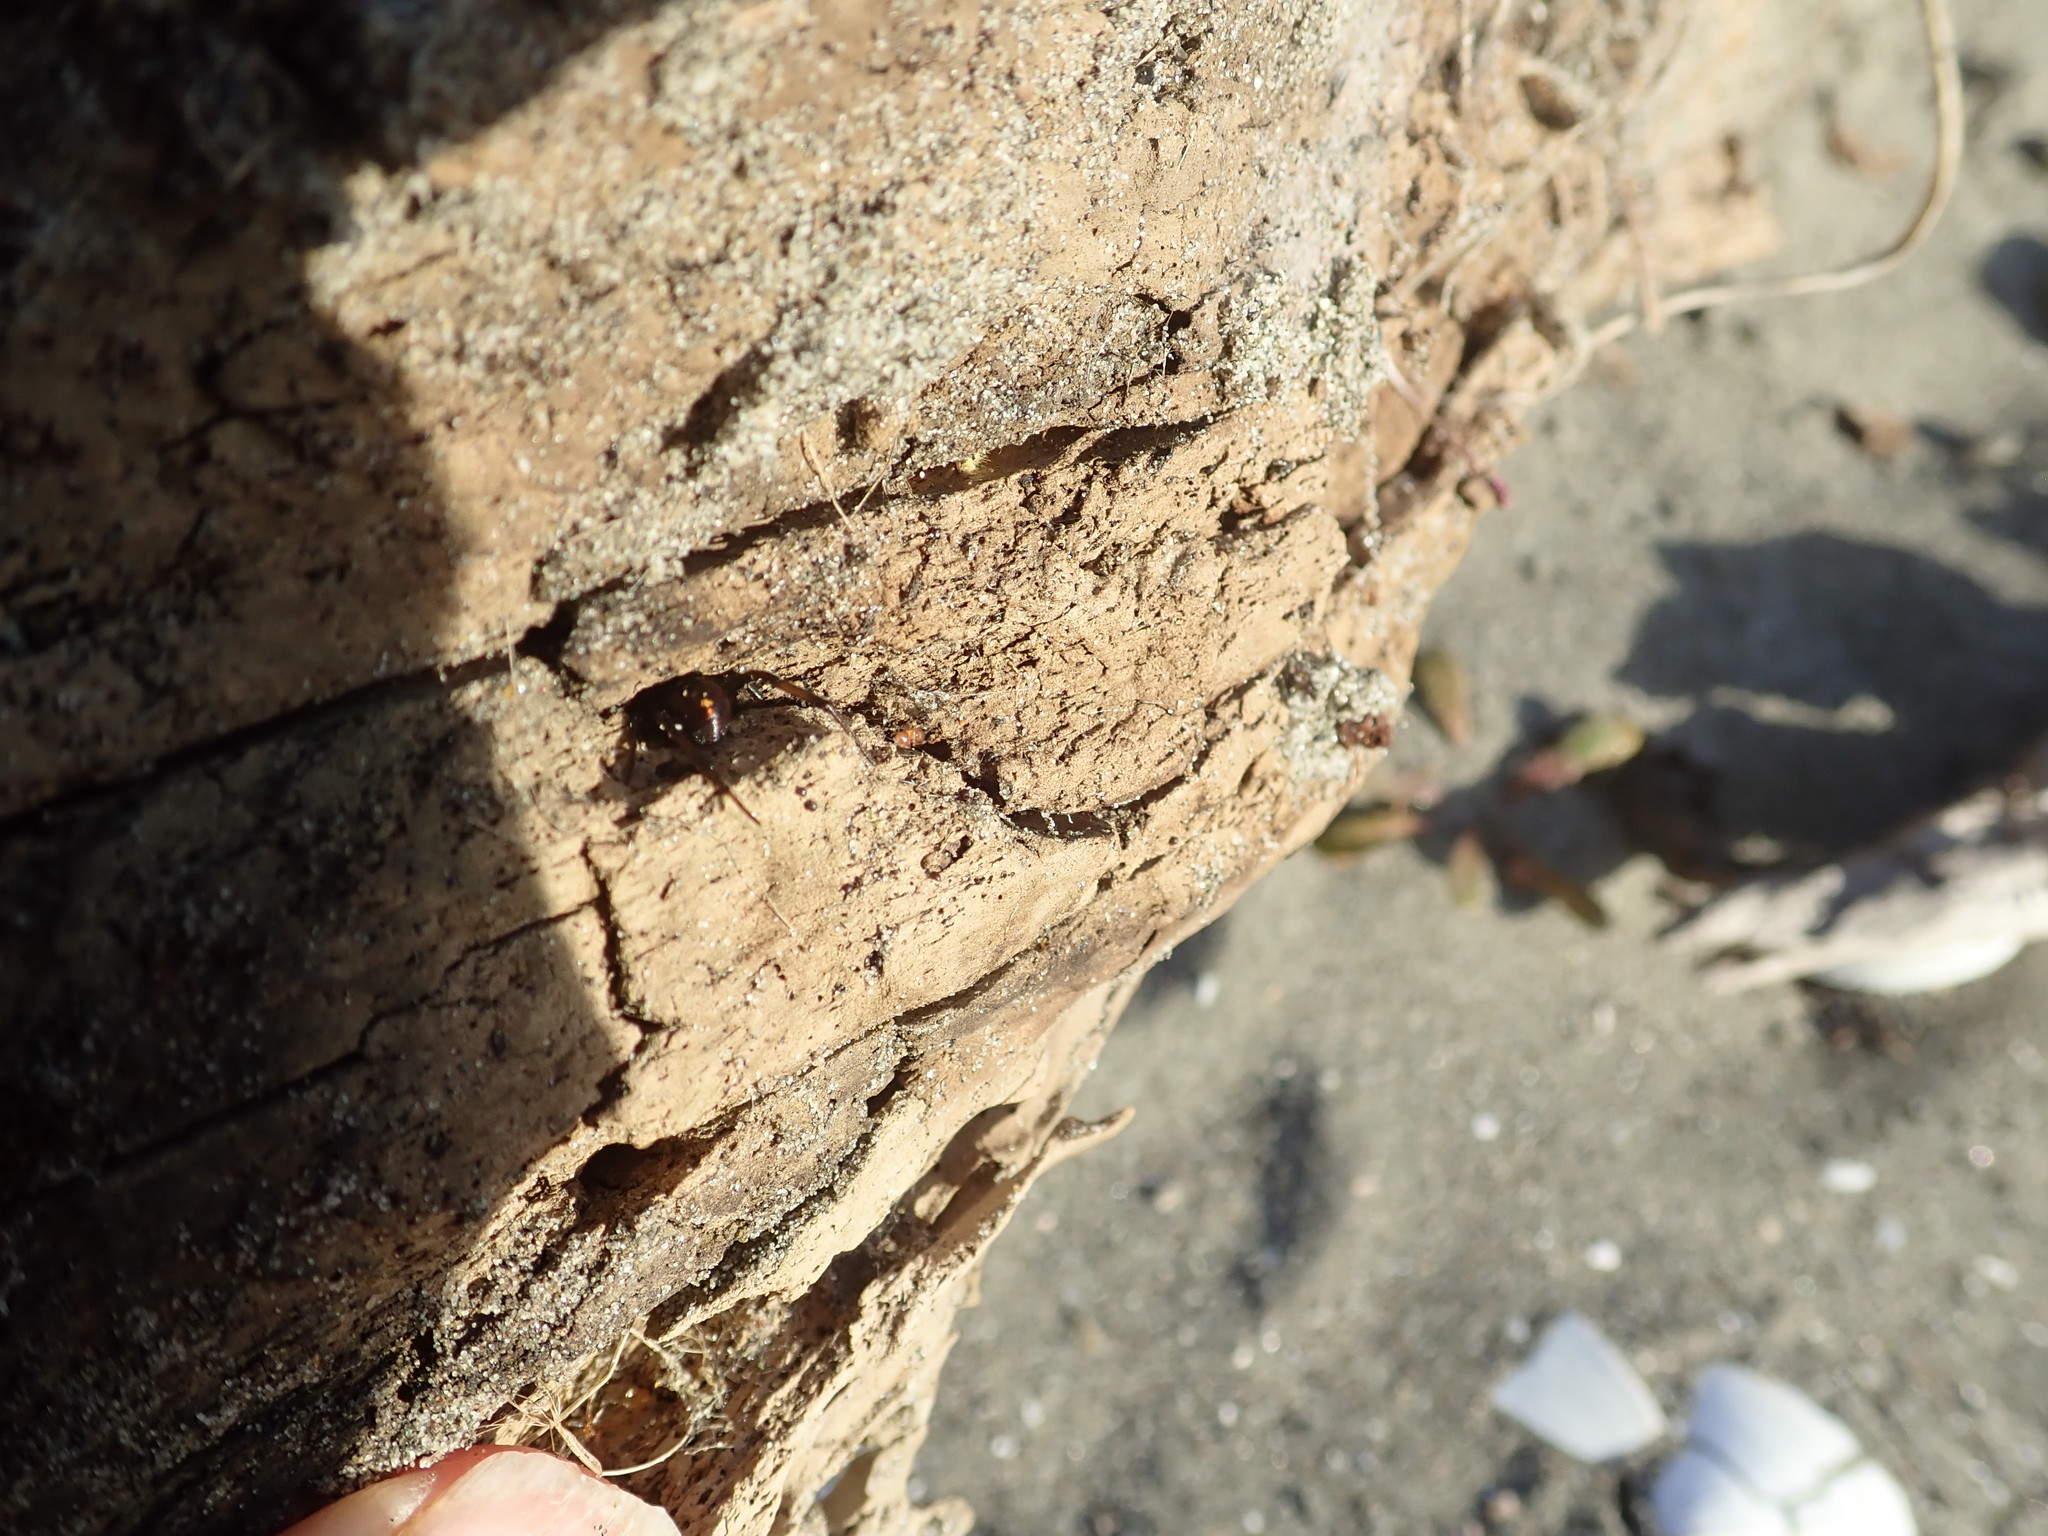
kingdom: Animalia
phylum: Arthropoda
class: Arachnida
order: Araneae
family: Theridiidae
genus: Steatoda
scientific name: Steatoda capensis
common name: Cobweb weaver
